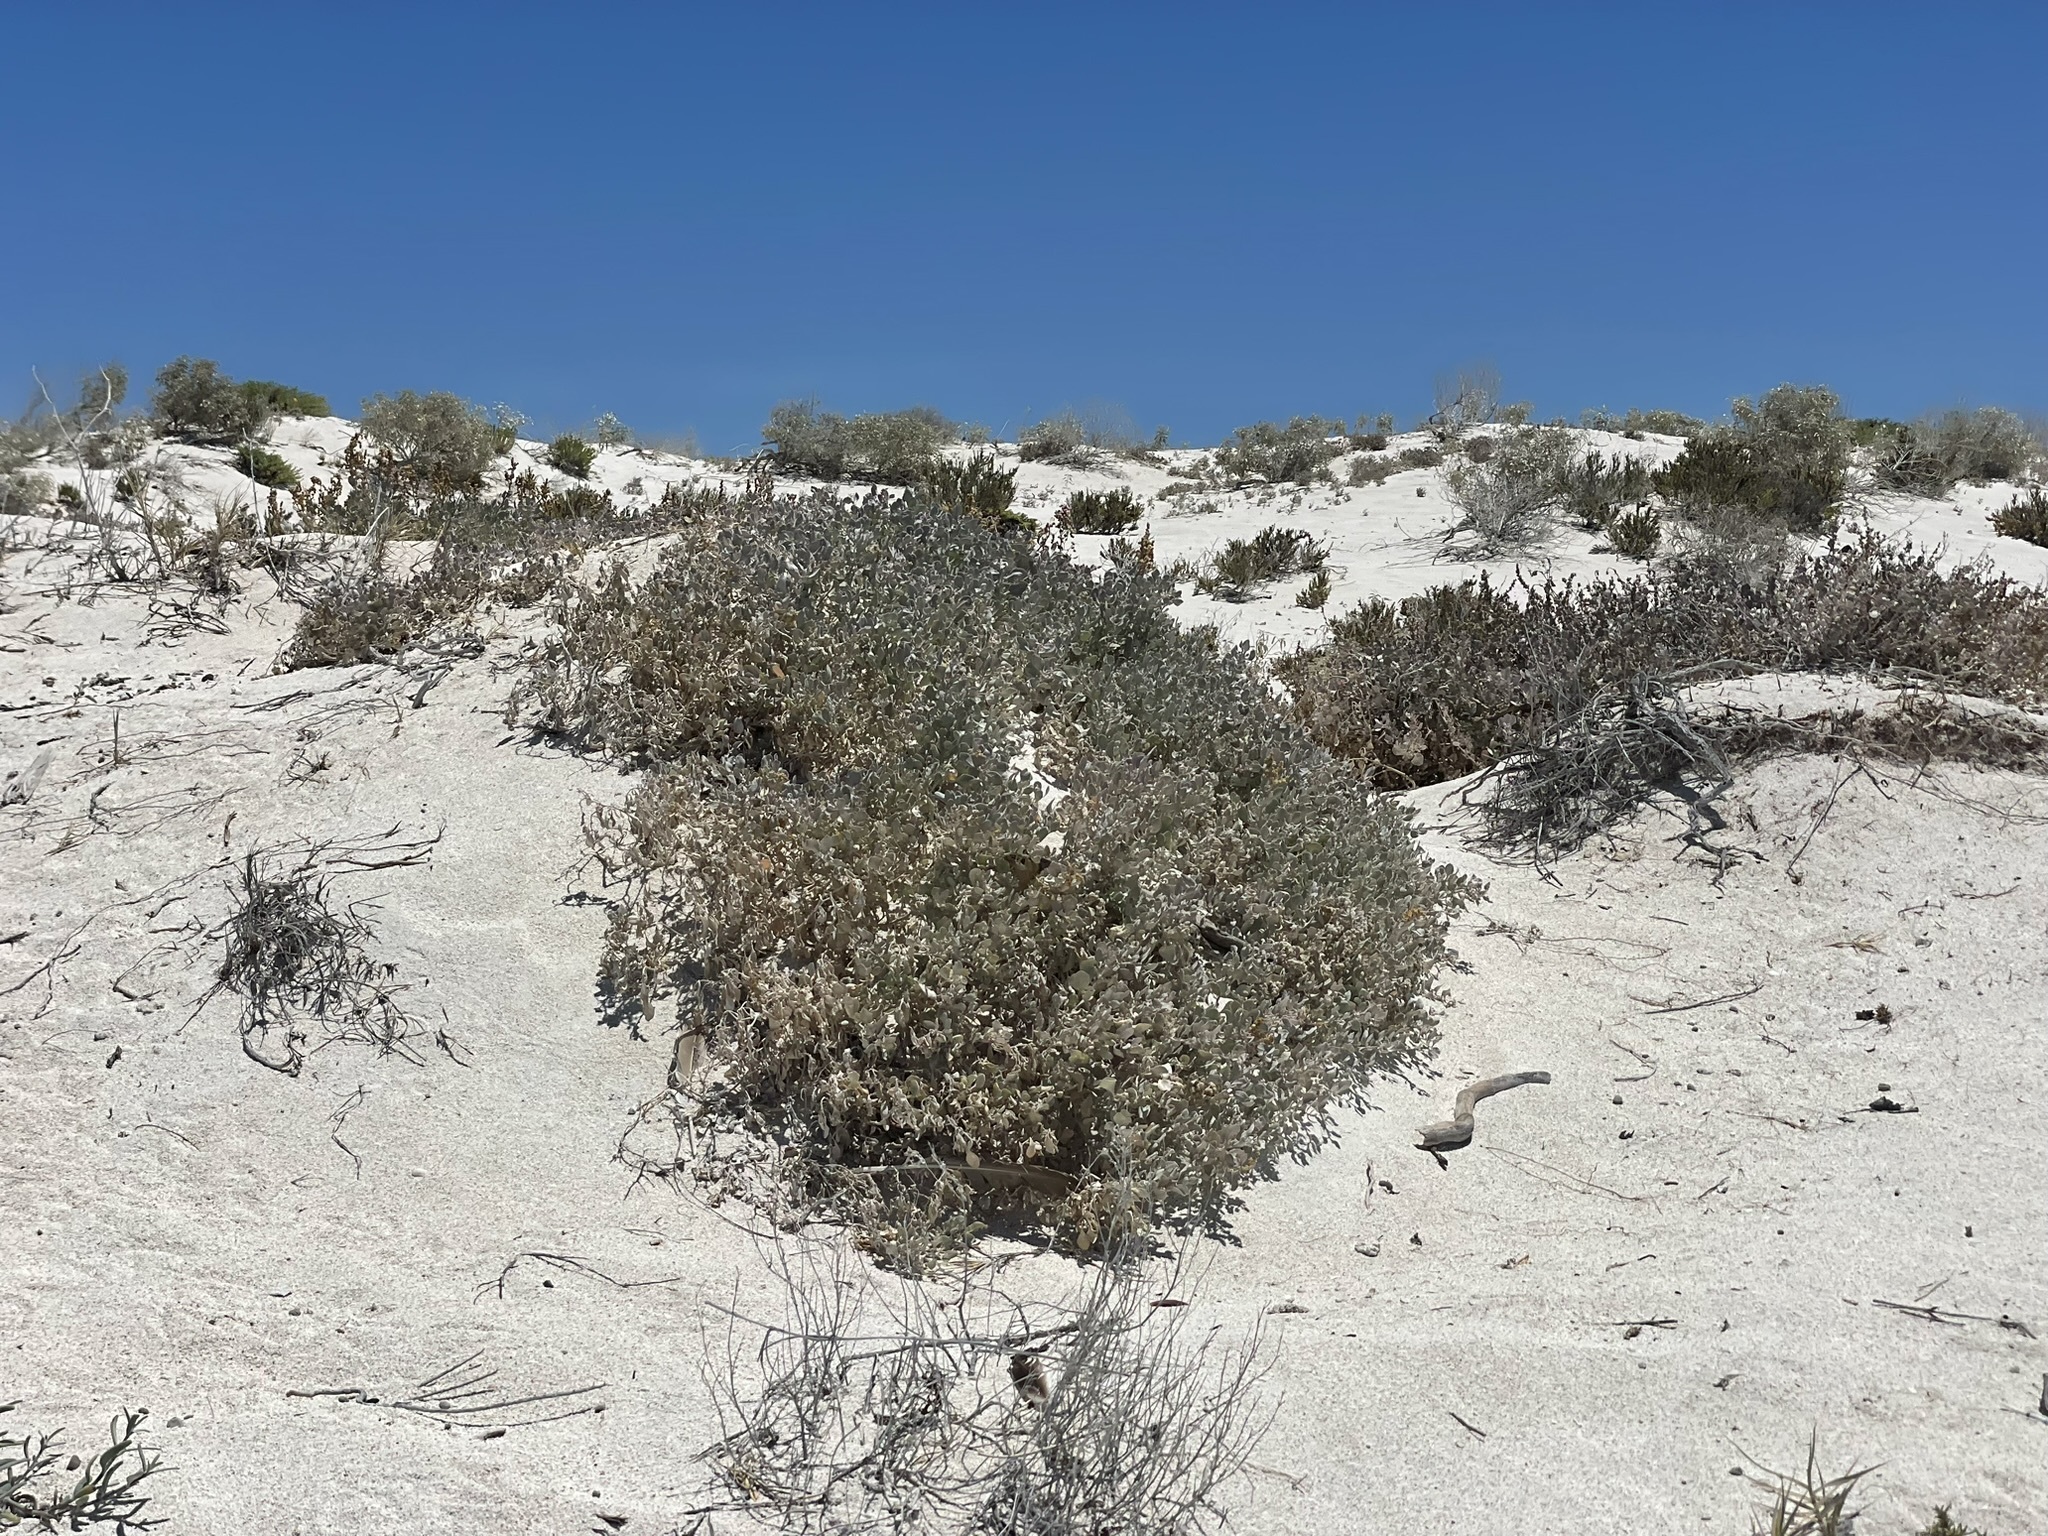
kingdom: Plantae
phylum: Tracheophyta
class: Magnoliopsida
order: Caryophyllales
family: Amaranthaceae
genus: Atriplex
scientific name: Atriplex barclayana
